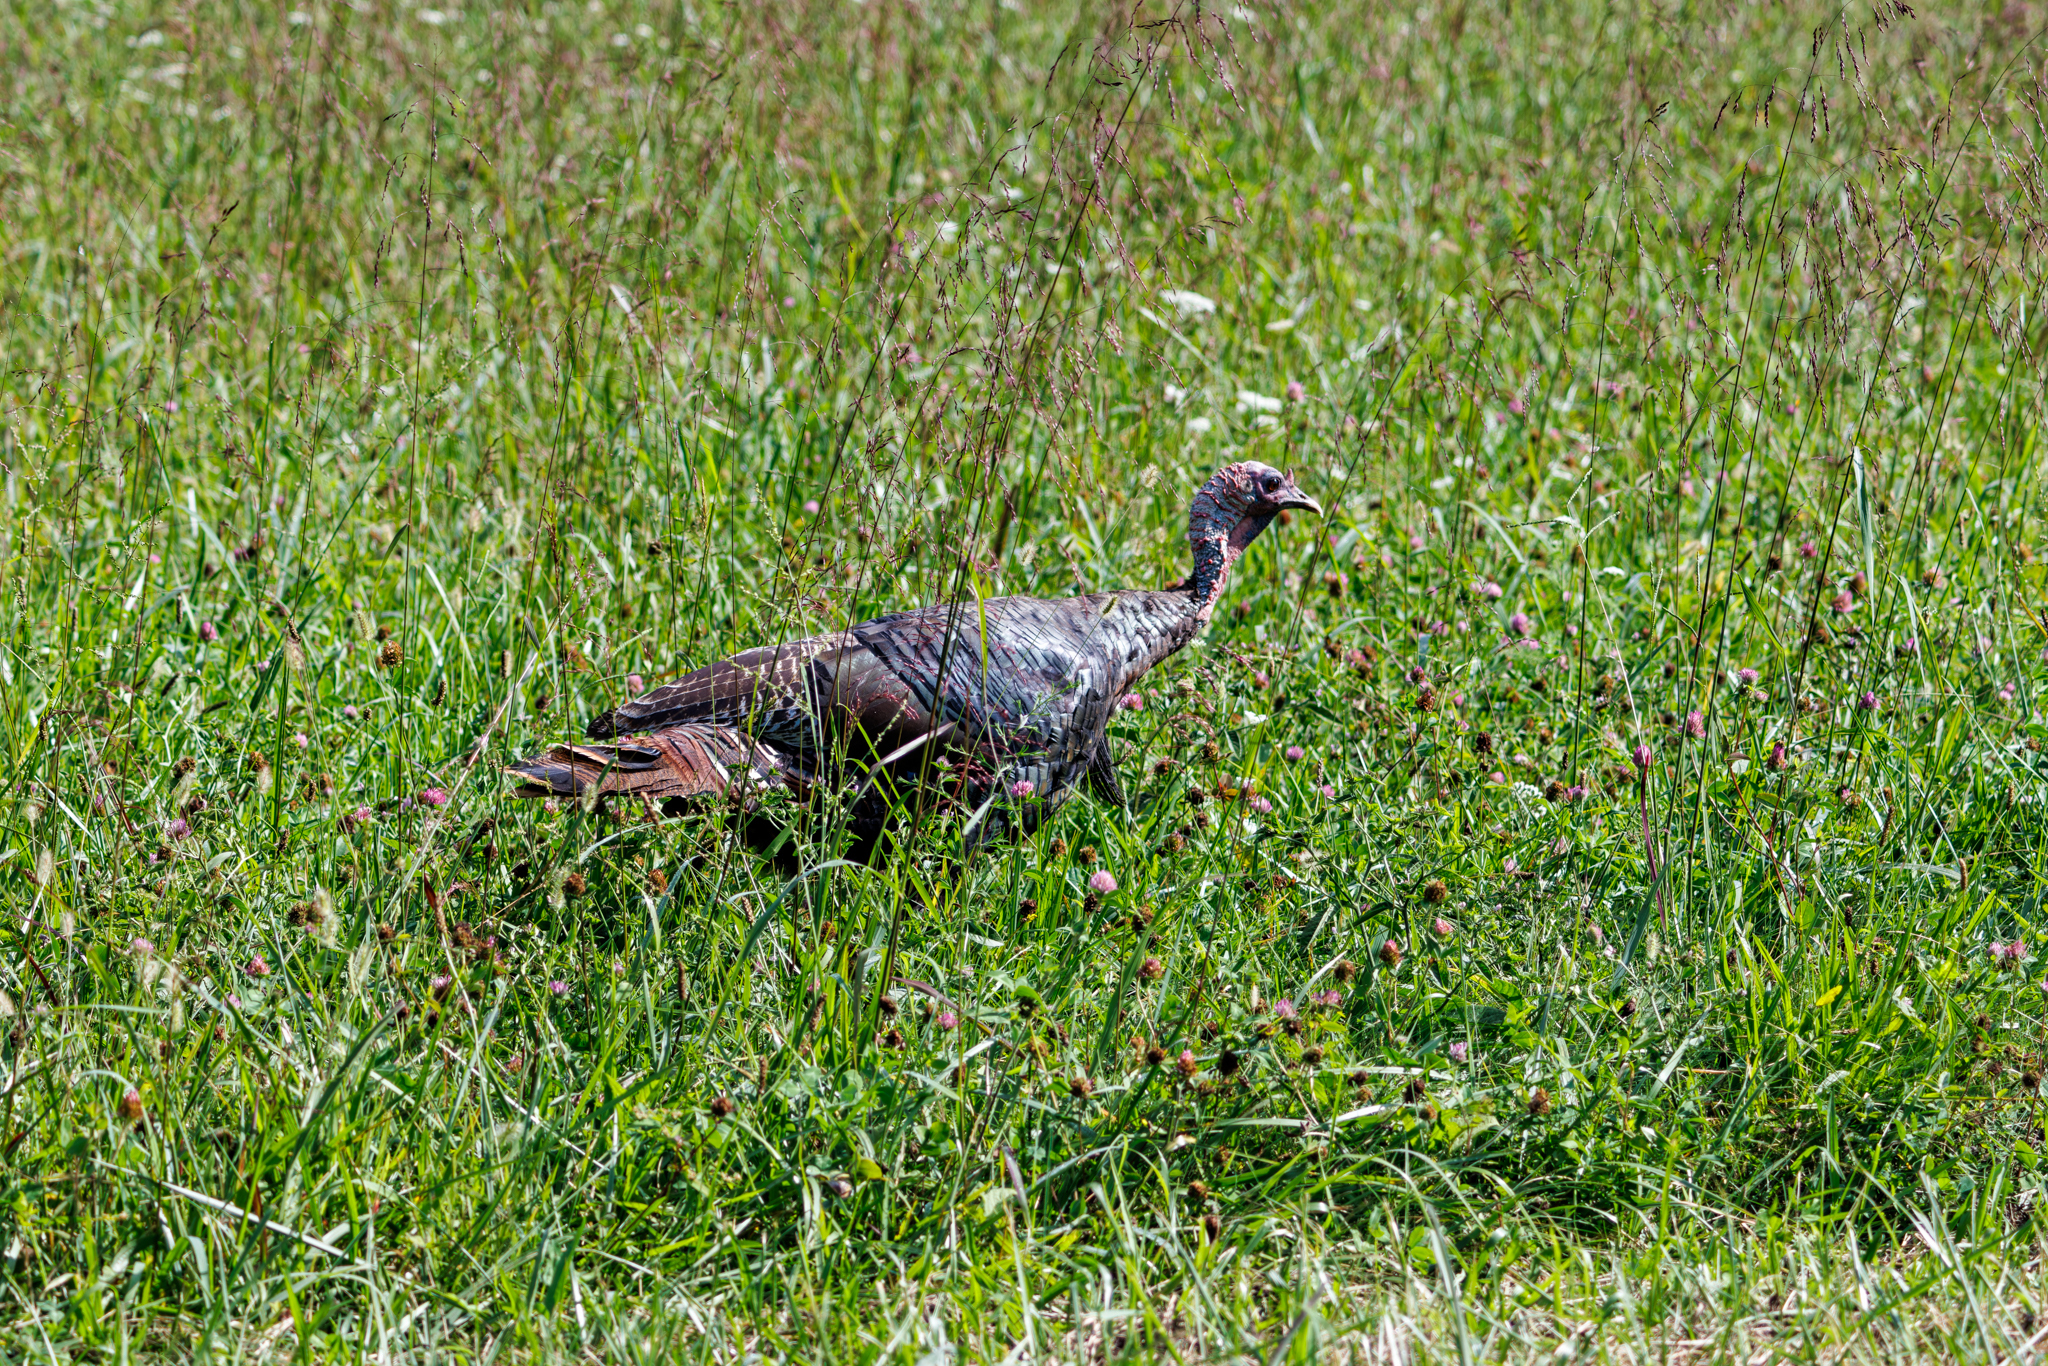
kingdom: Animalia
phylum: Chordata
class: Aves
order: Galliformes
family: Phasianidae
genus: Meleagris
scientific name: Meleagris gallopavo
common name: Wild turkey
